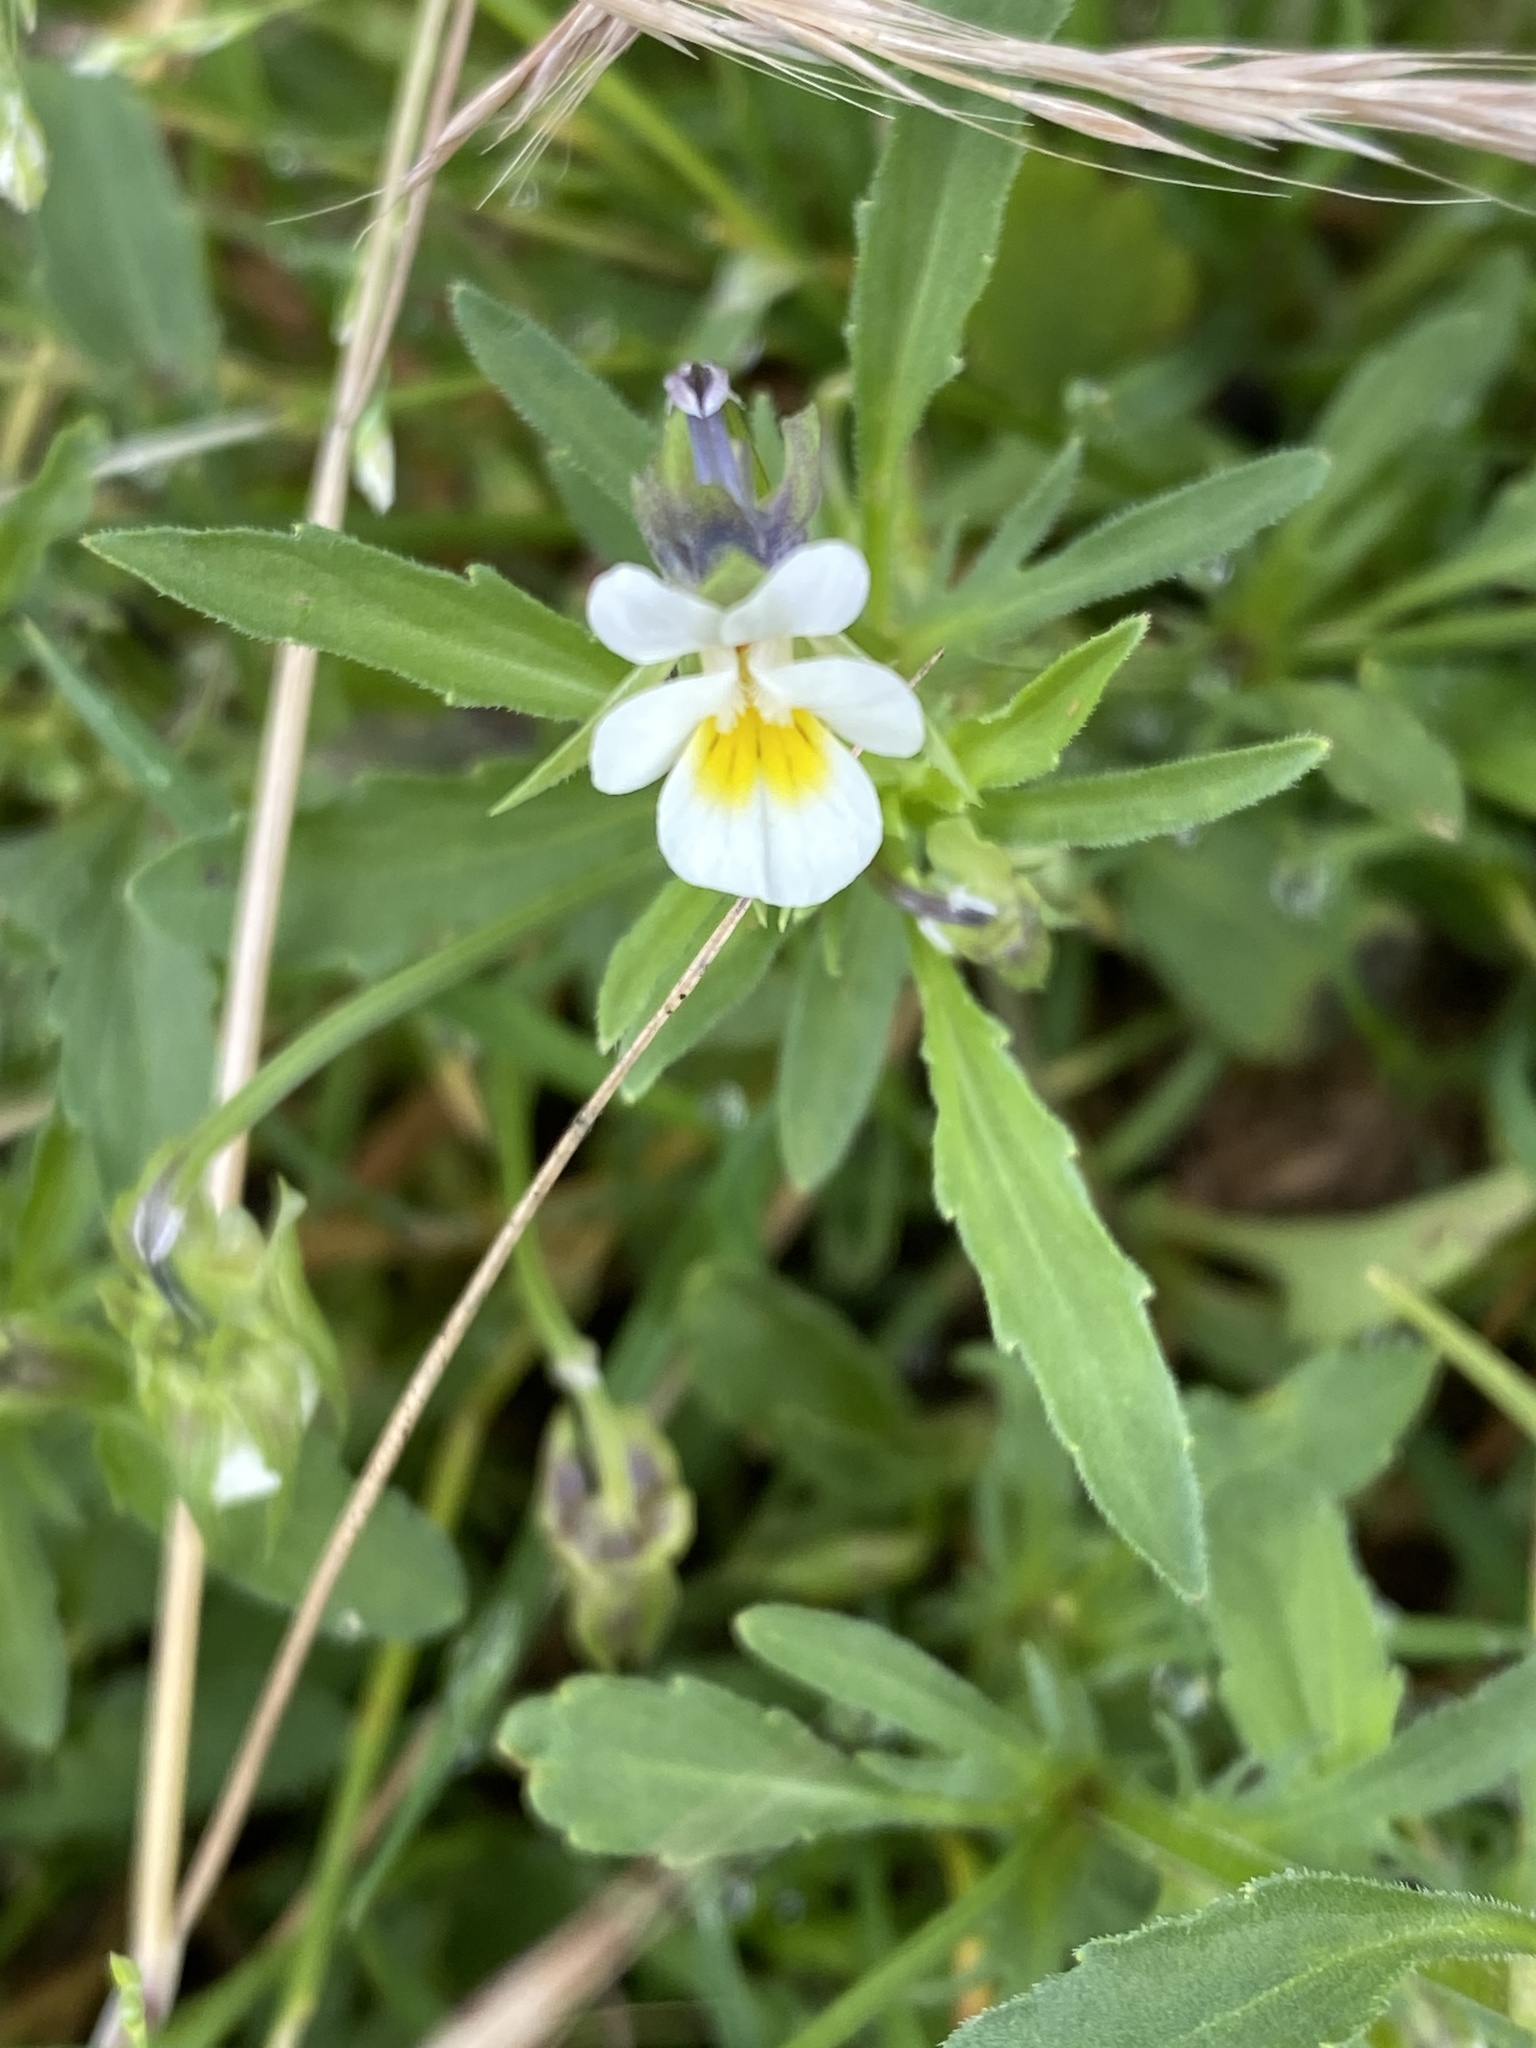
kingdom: Plantae
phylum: Tracheophyta
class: Magnoliopsida
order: Malpighiales
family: Violaceae
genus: Viola
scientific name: Viola arvensis
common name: Field pansy
